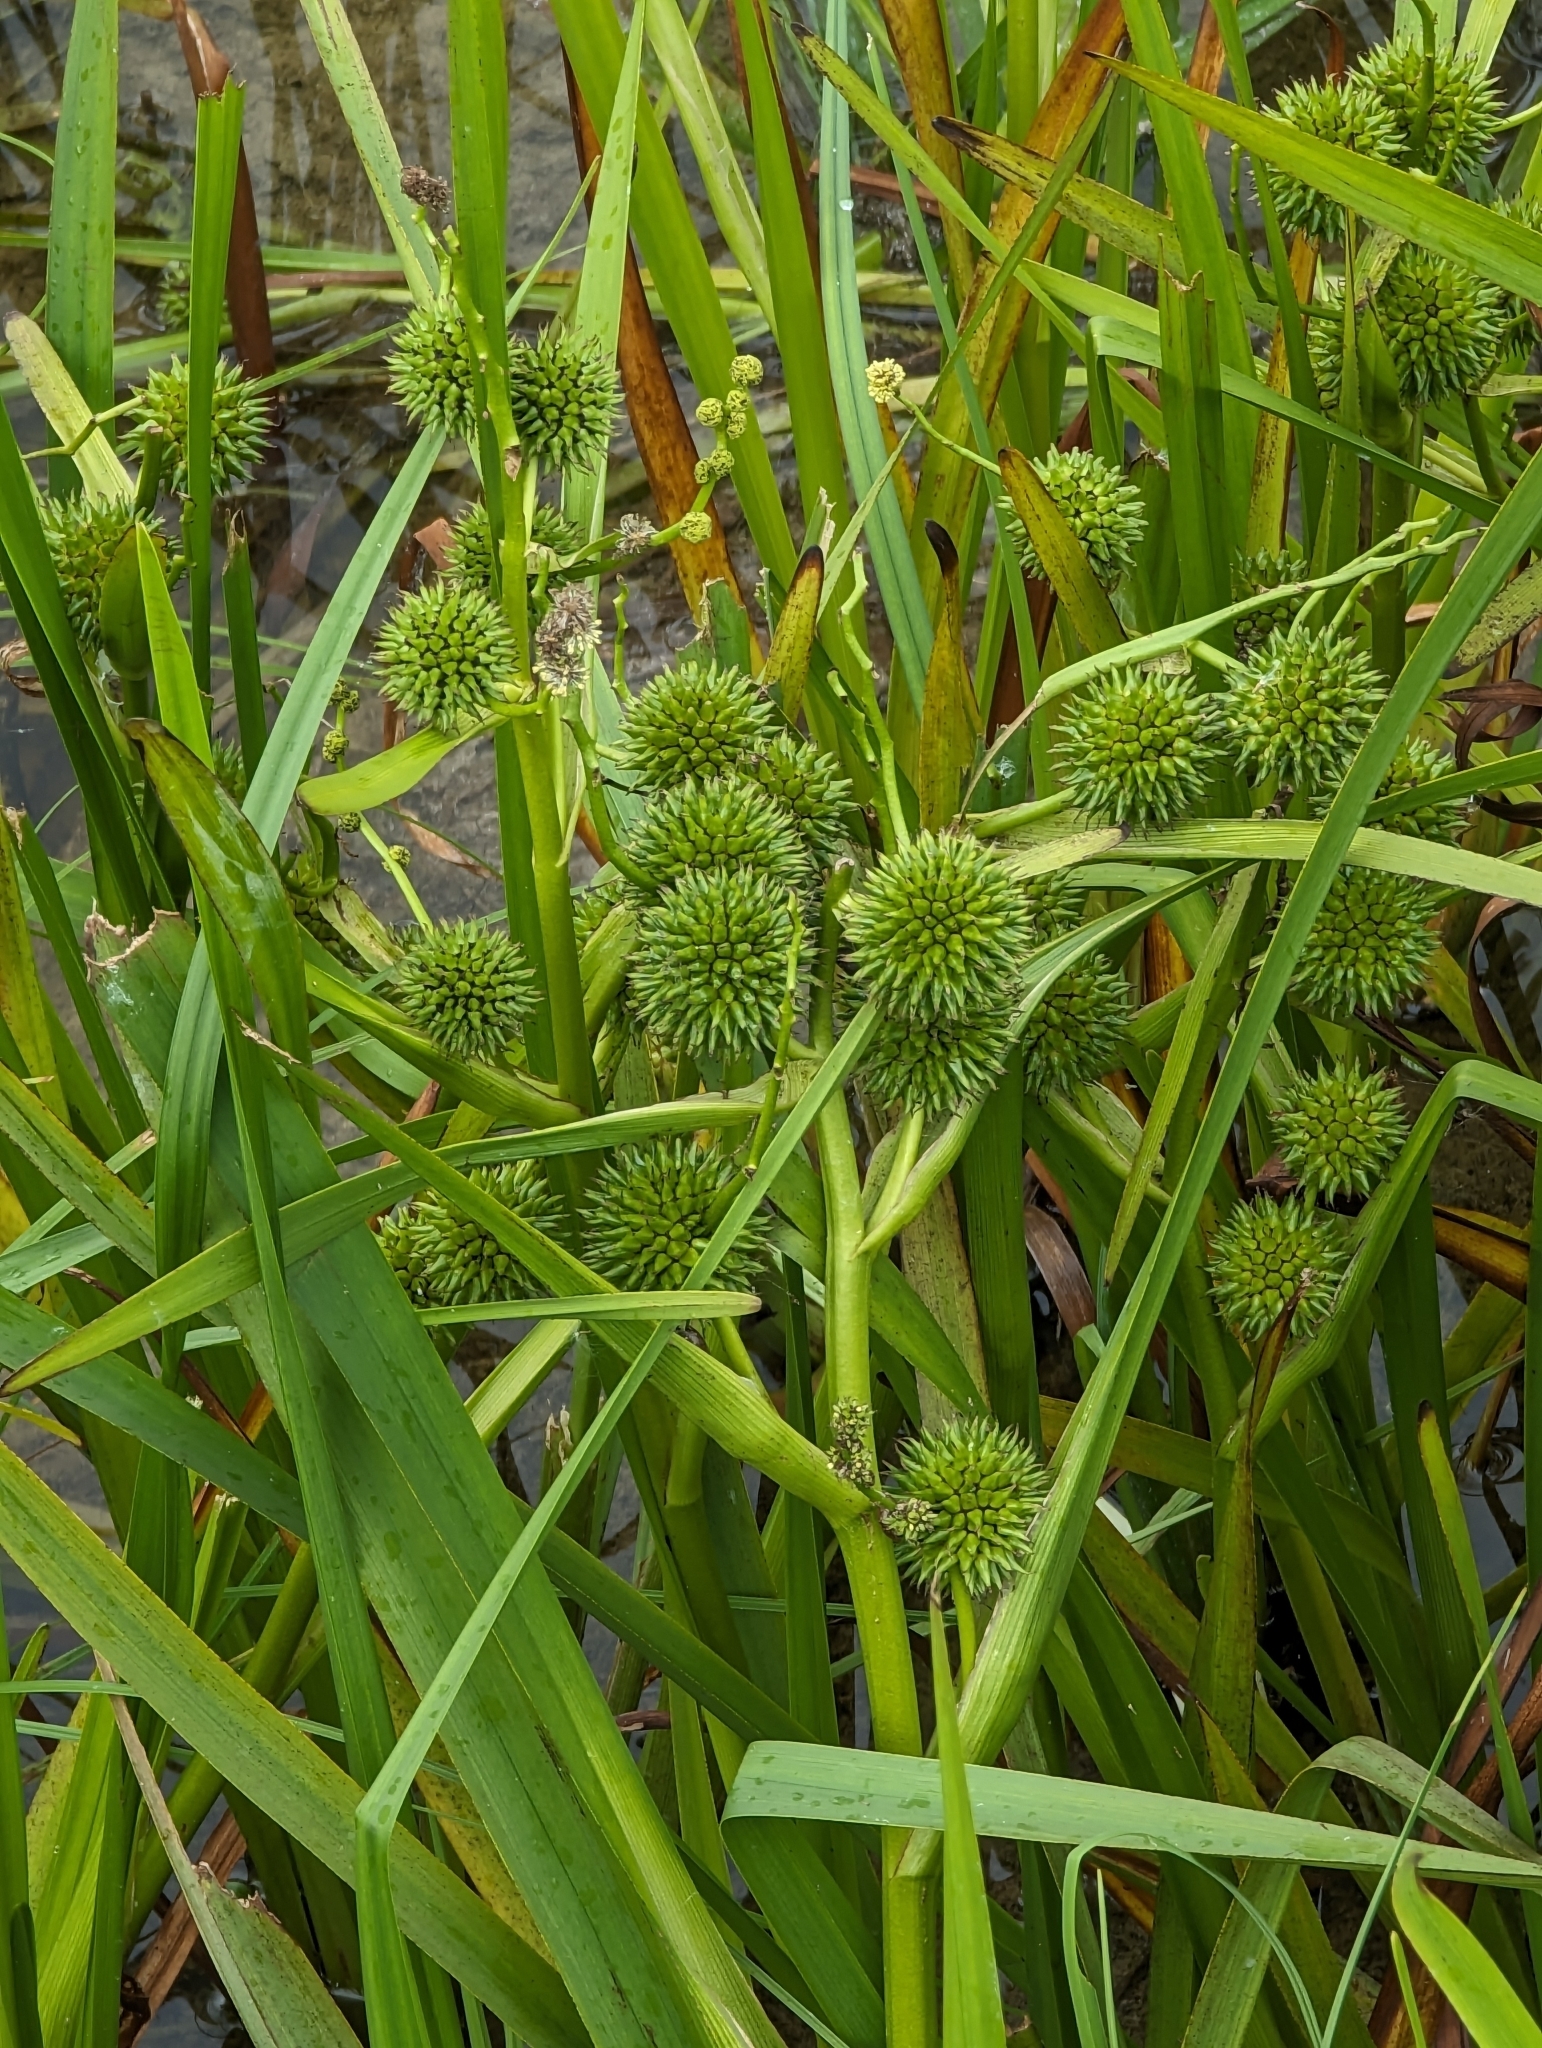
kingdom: Plantae
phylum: Tracheophyta
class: Liliopsida
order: Poales
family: Typhaceae
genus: Sparganium
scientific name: Sparganium erectum
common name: Branched bur-reed
